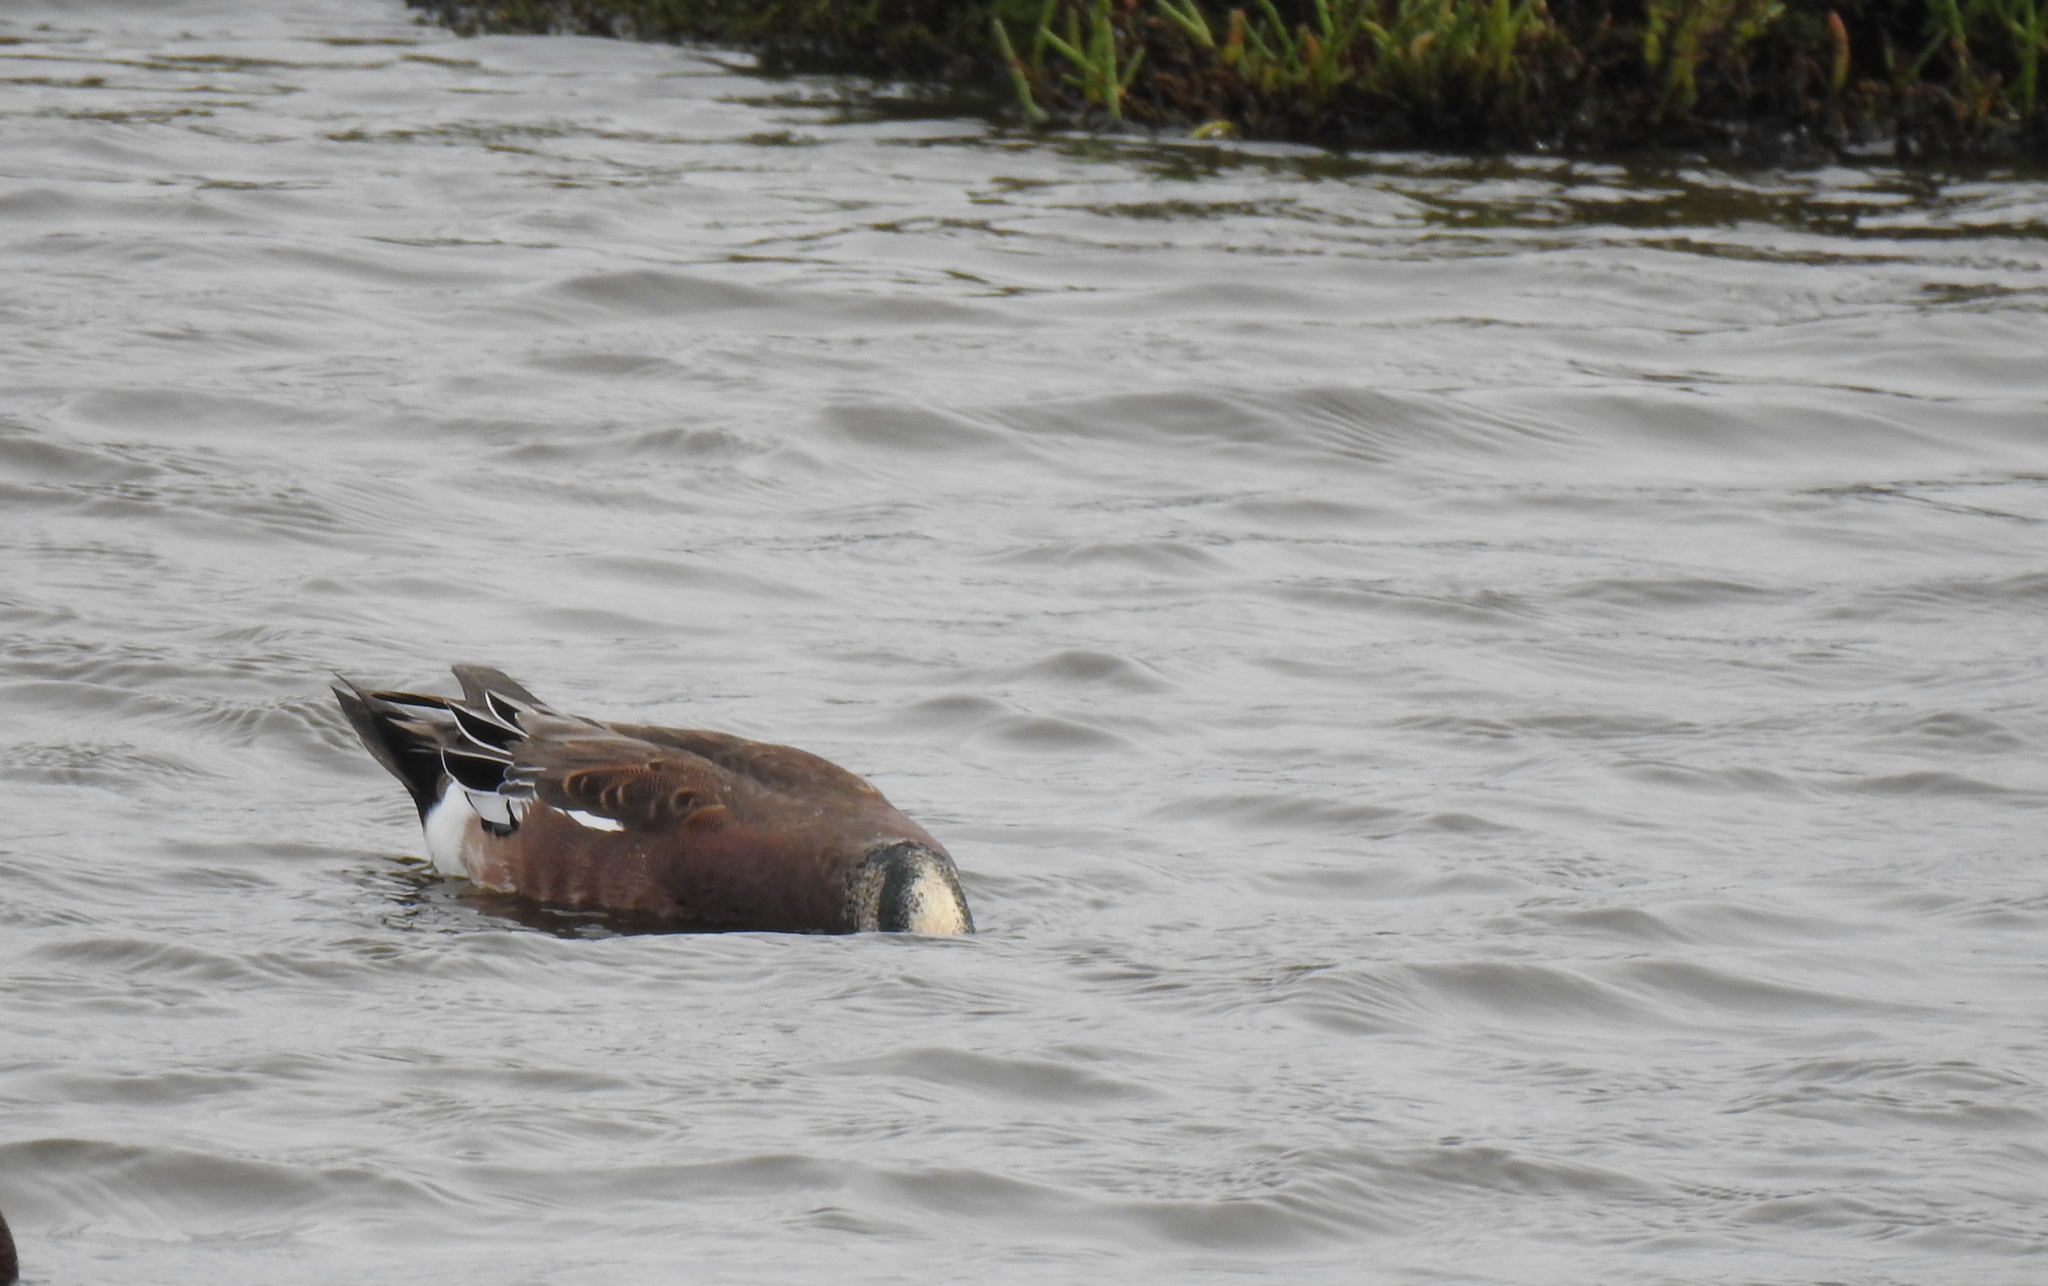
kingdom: Animalia
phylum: Chordata
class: Aves
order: Anseriformes
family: Anatidae
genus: Mareca
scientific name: Mareca americana
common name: American wigeon
